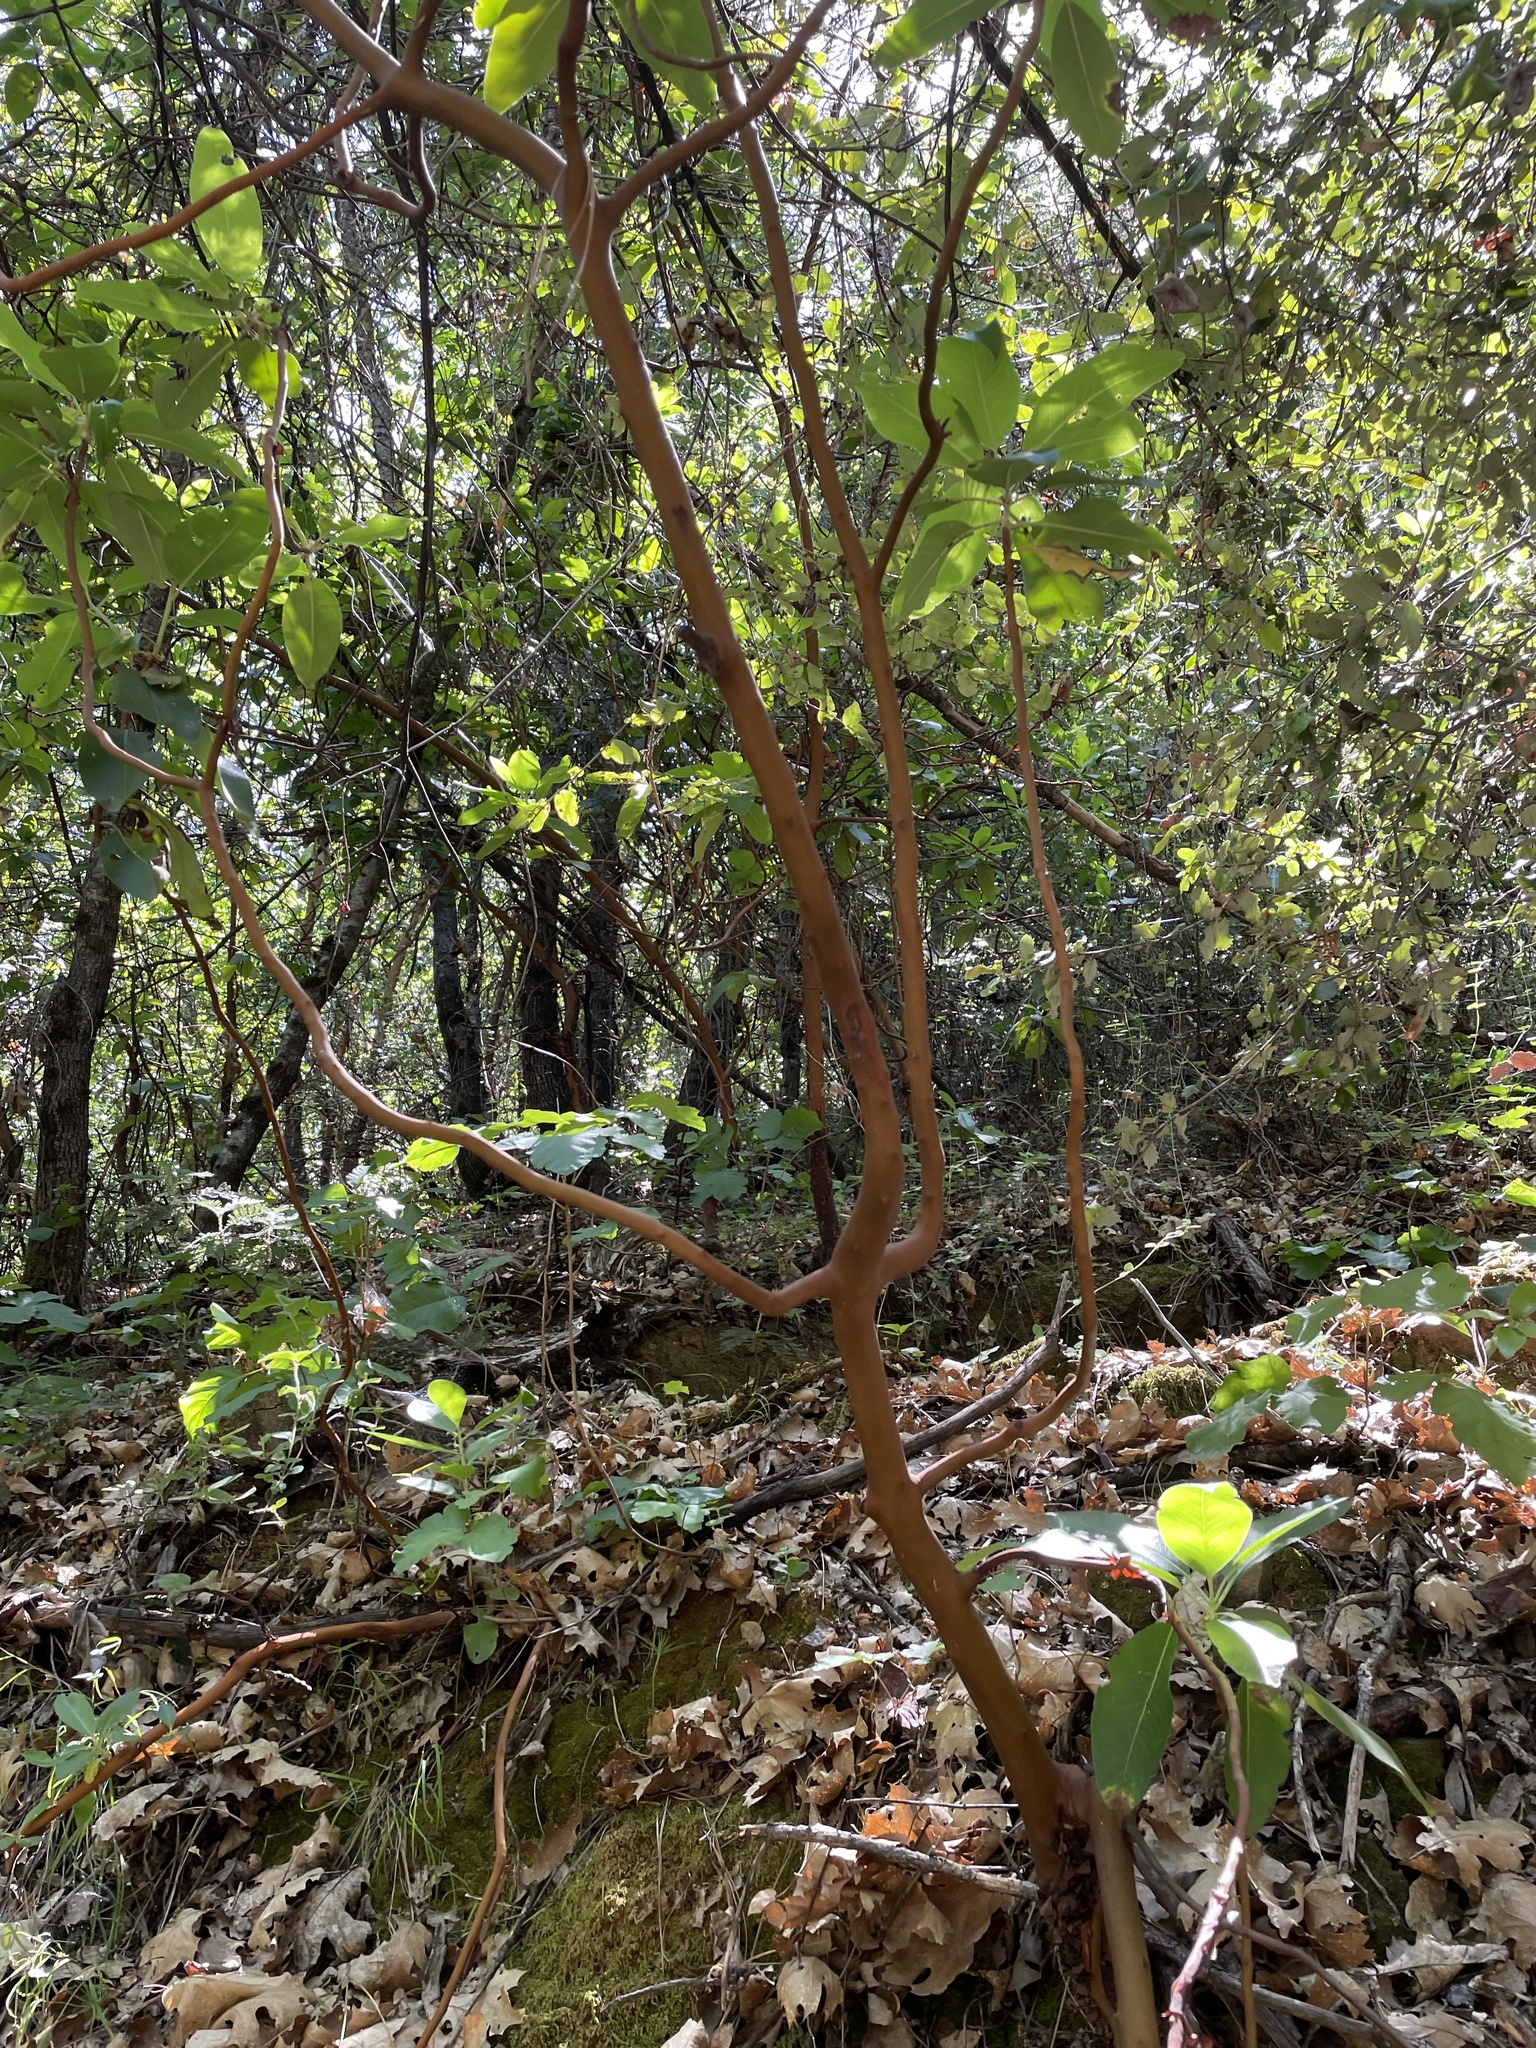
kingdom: Plantae
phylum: Tracheophyta
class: Magnoliopsida
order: Ericales
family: Ericaceae
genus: Arbutus
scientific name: Arbutus menziesii
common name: Pacific madrone
